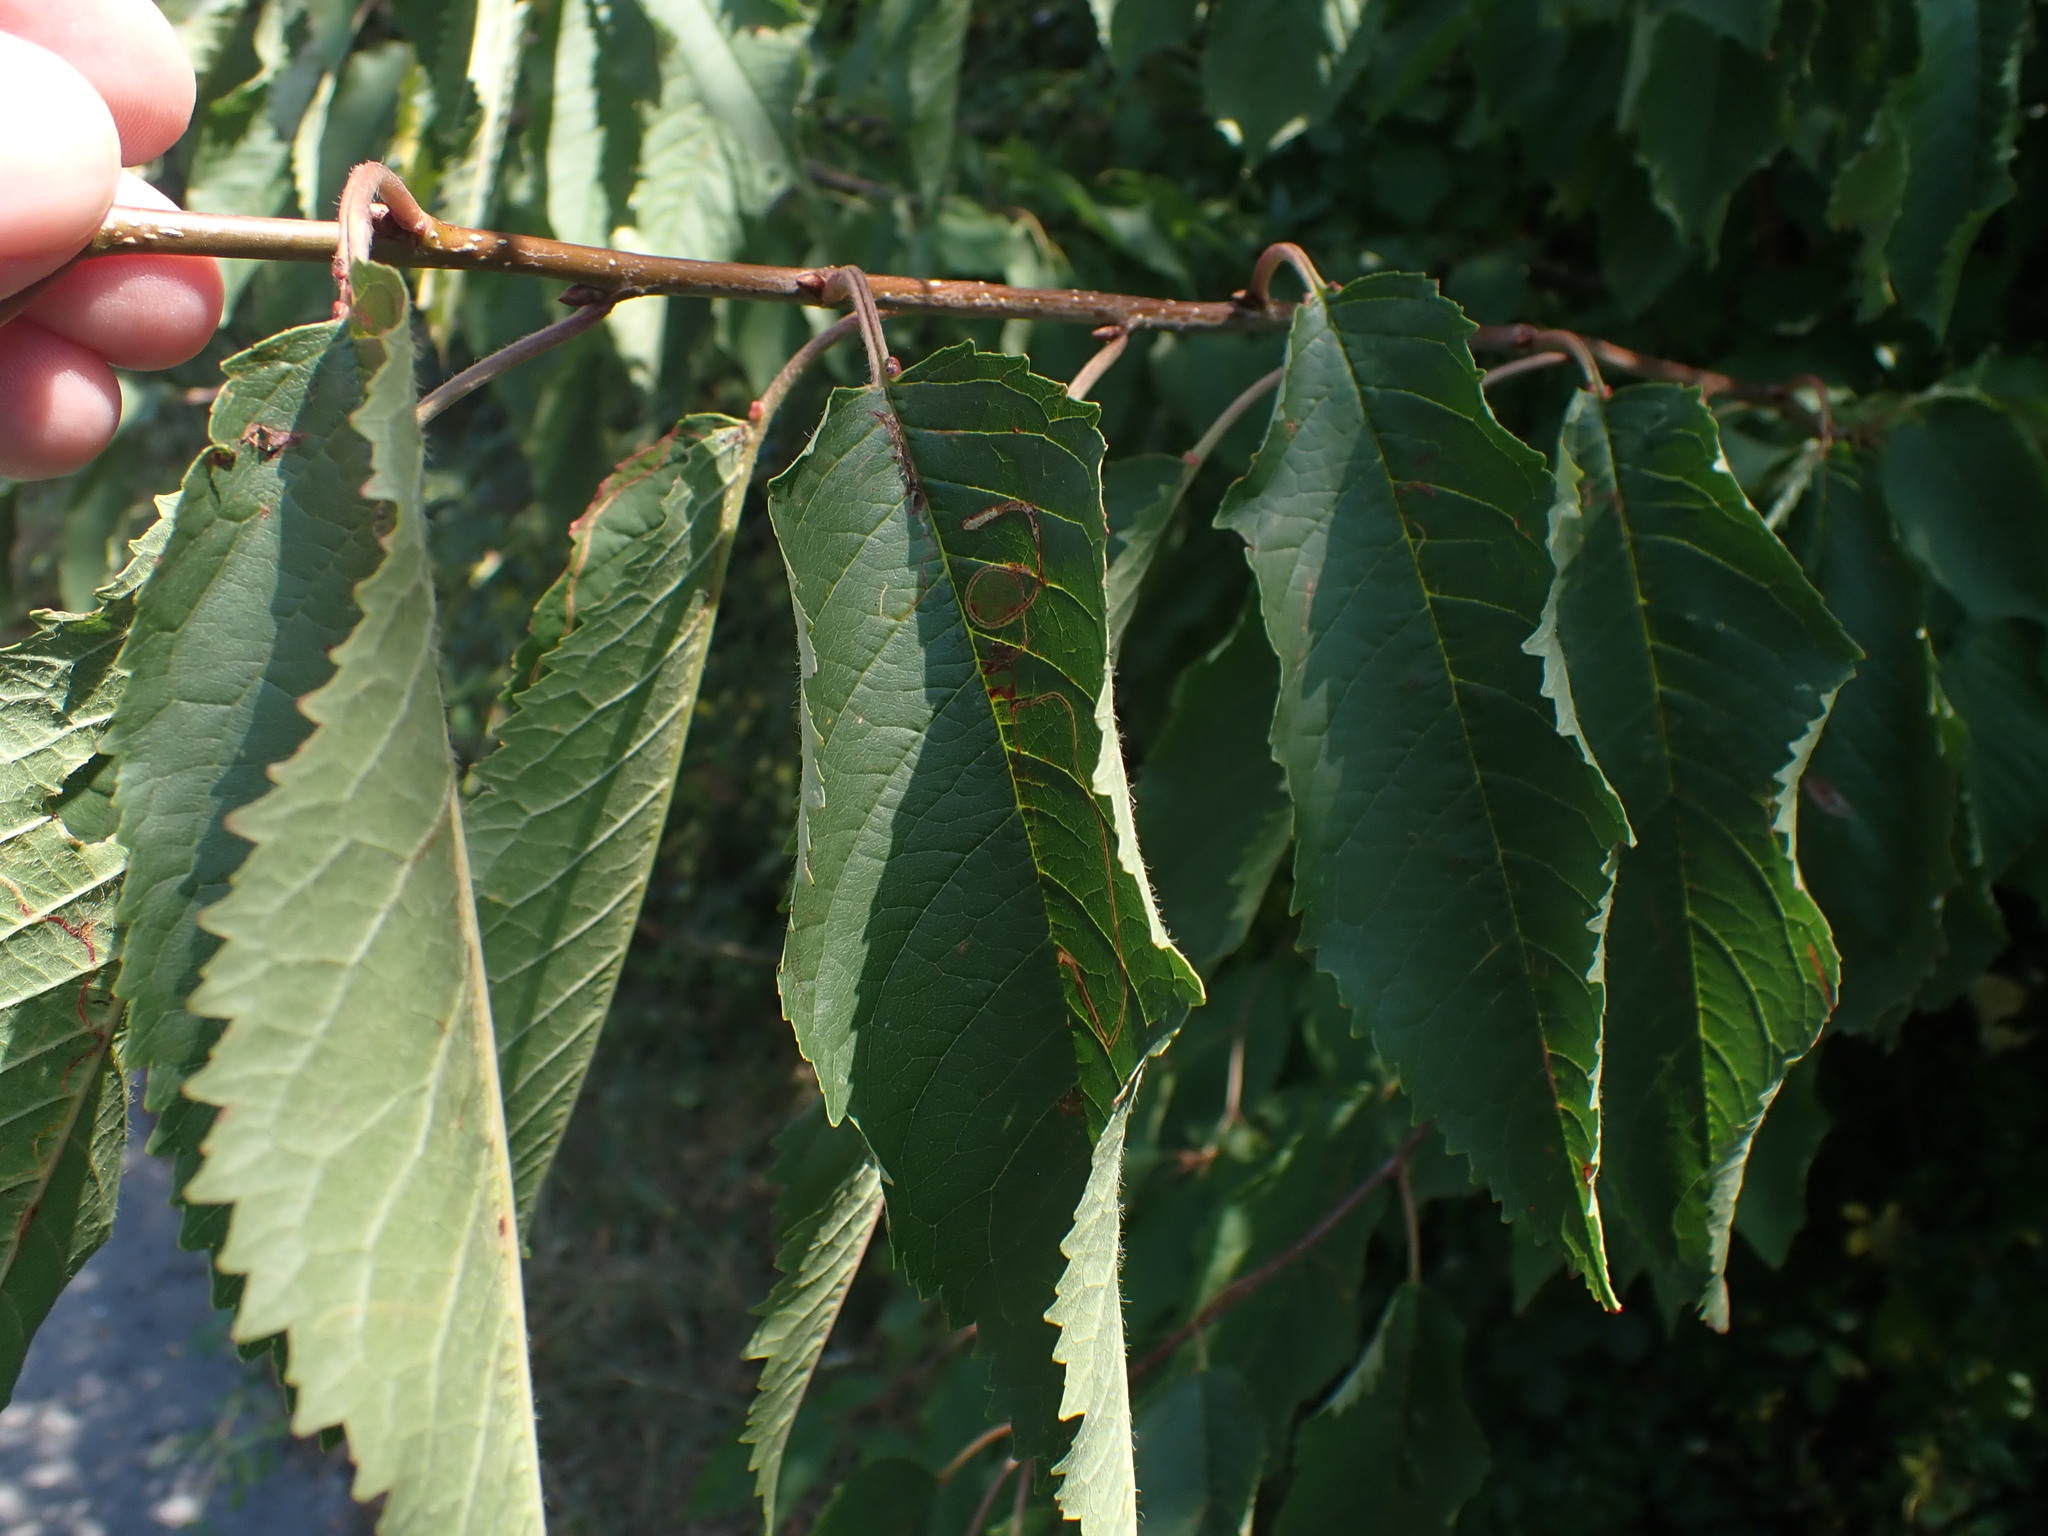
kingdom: Plantae
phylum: Tracheophyta
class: Magnoliopsida
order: Rosales
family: Rosaceae
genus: Prunus
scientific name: Prunus avium
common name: Sweet cherry
